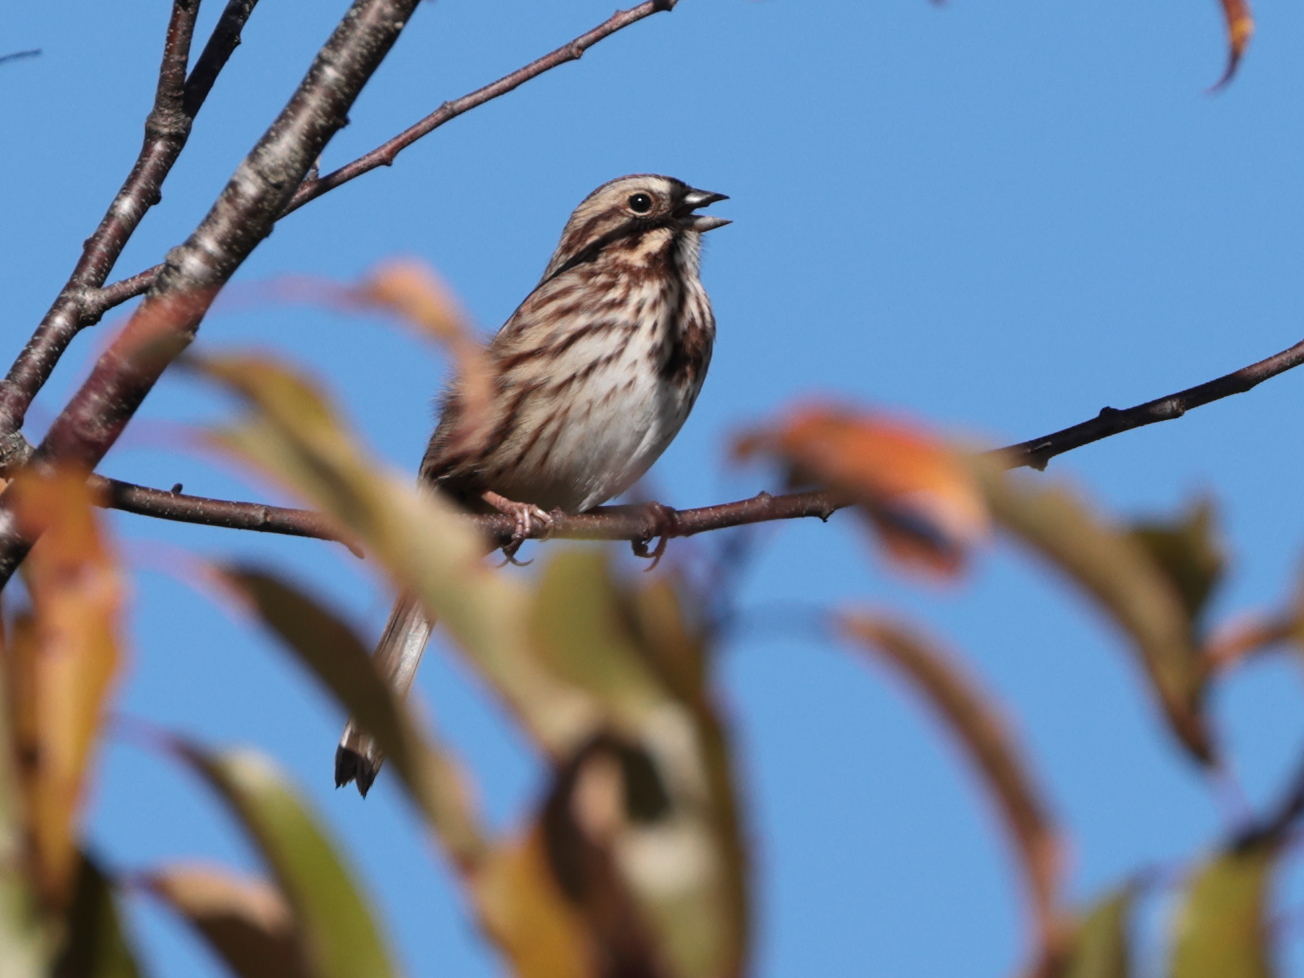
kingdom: Animalia
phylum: Chordata
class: Aves
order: Passeriformes
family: Passerellidae
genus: Melospiza
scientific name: Melospiza melodia
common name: Song sparrow
